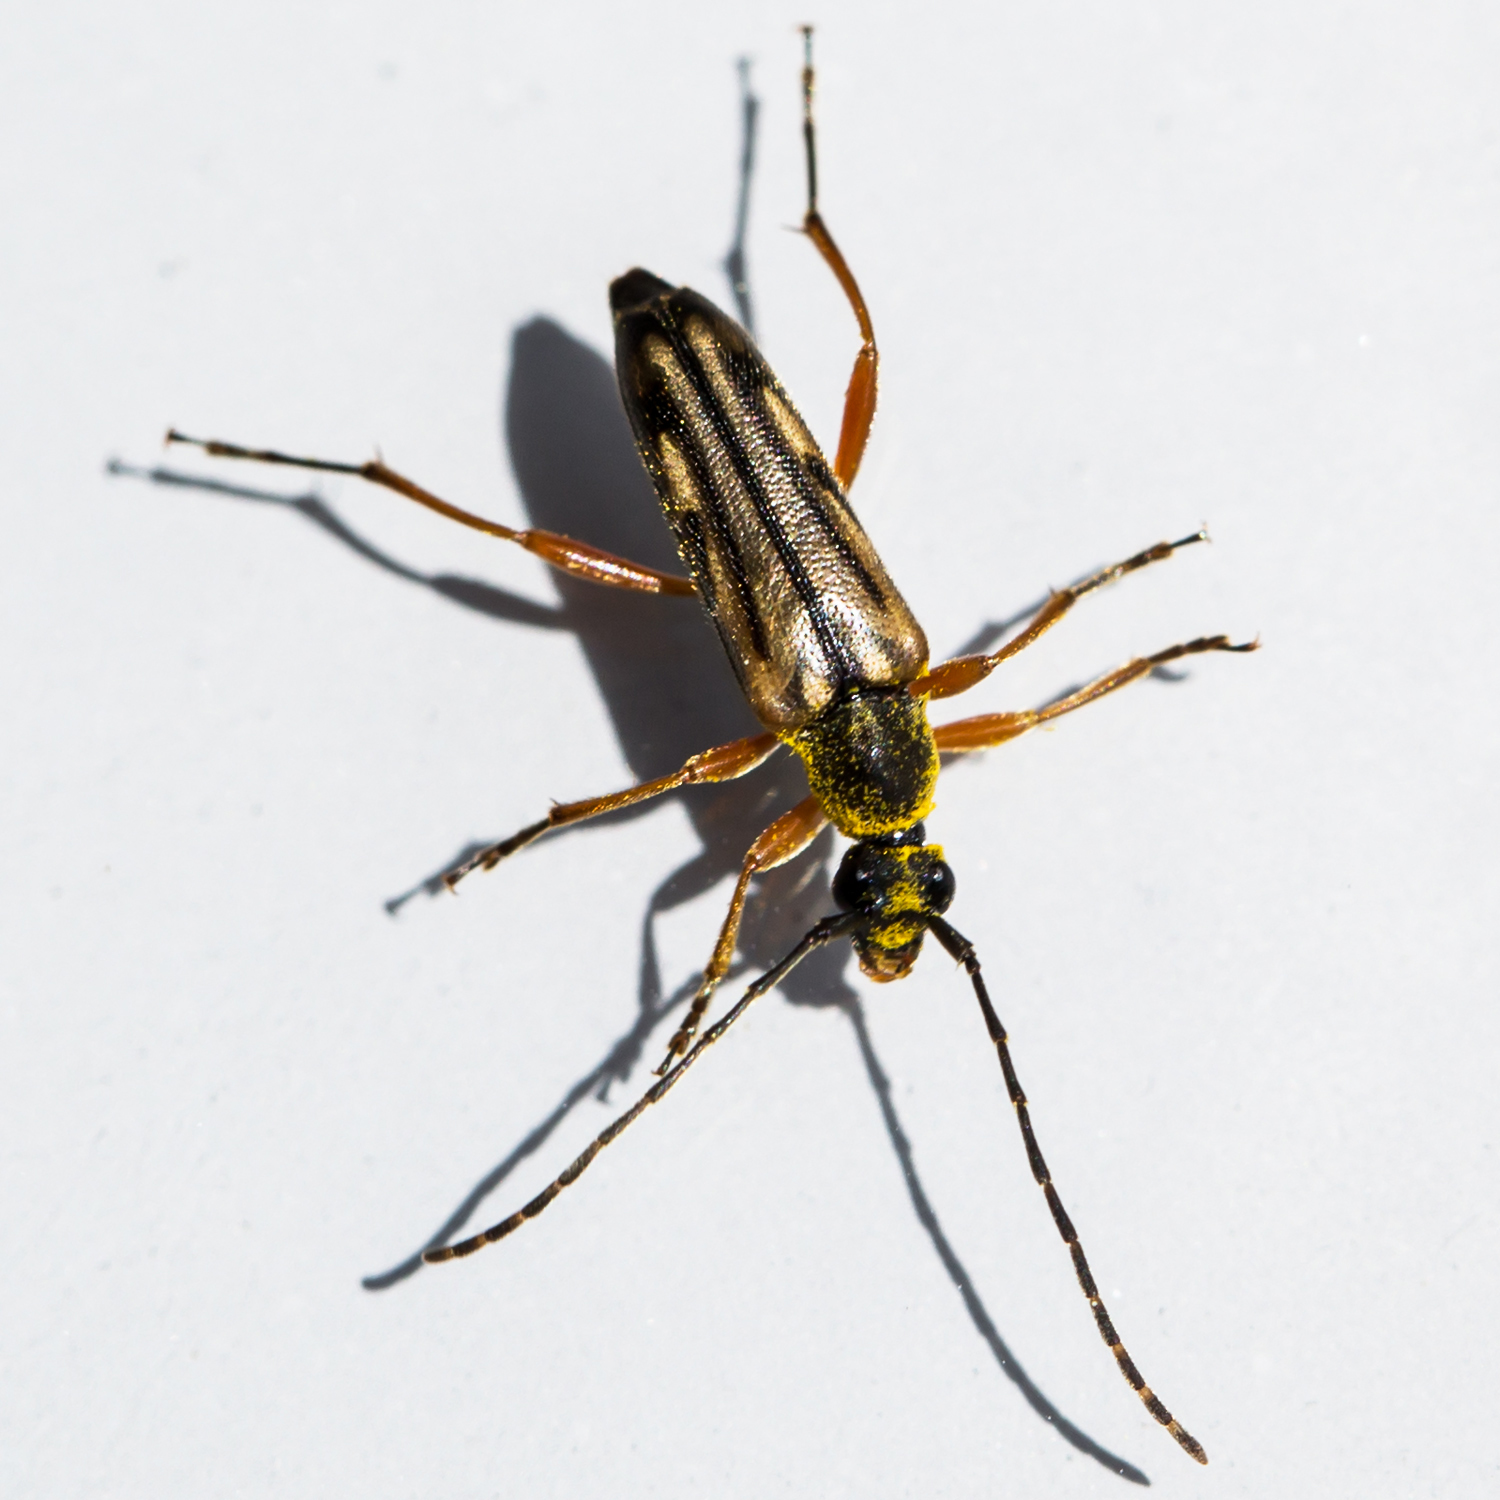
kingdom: Animalia
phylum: Arthropoda
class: Insecta
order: Coleoptera
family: Cerambycidae
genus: Analeptura
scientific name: Analeptura lineola
